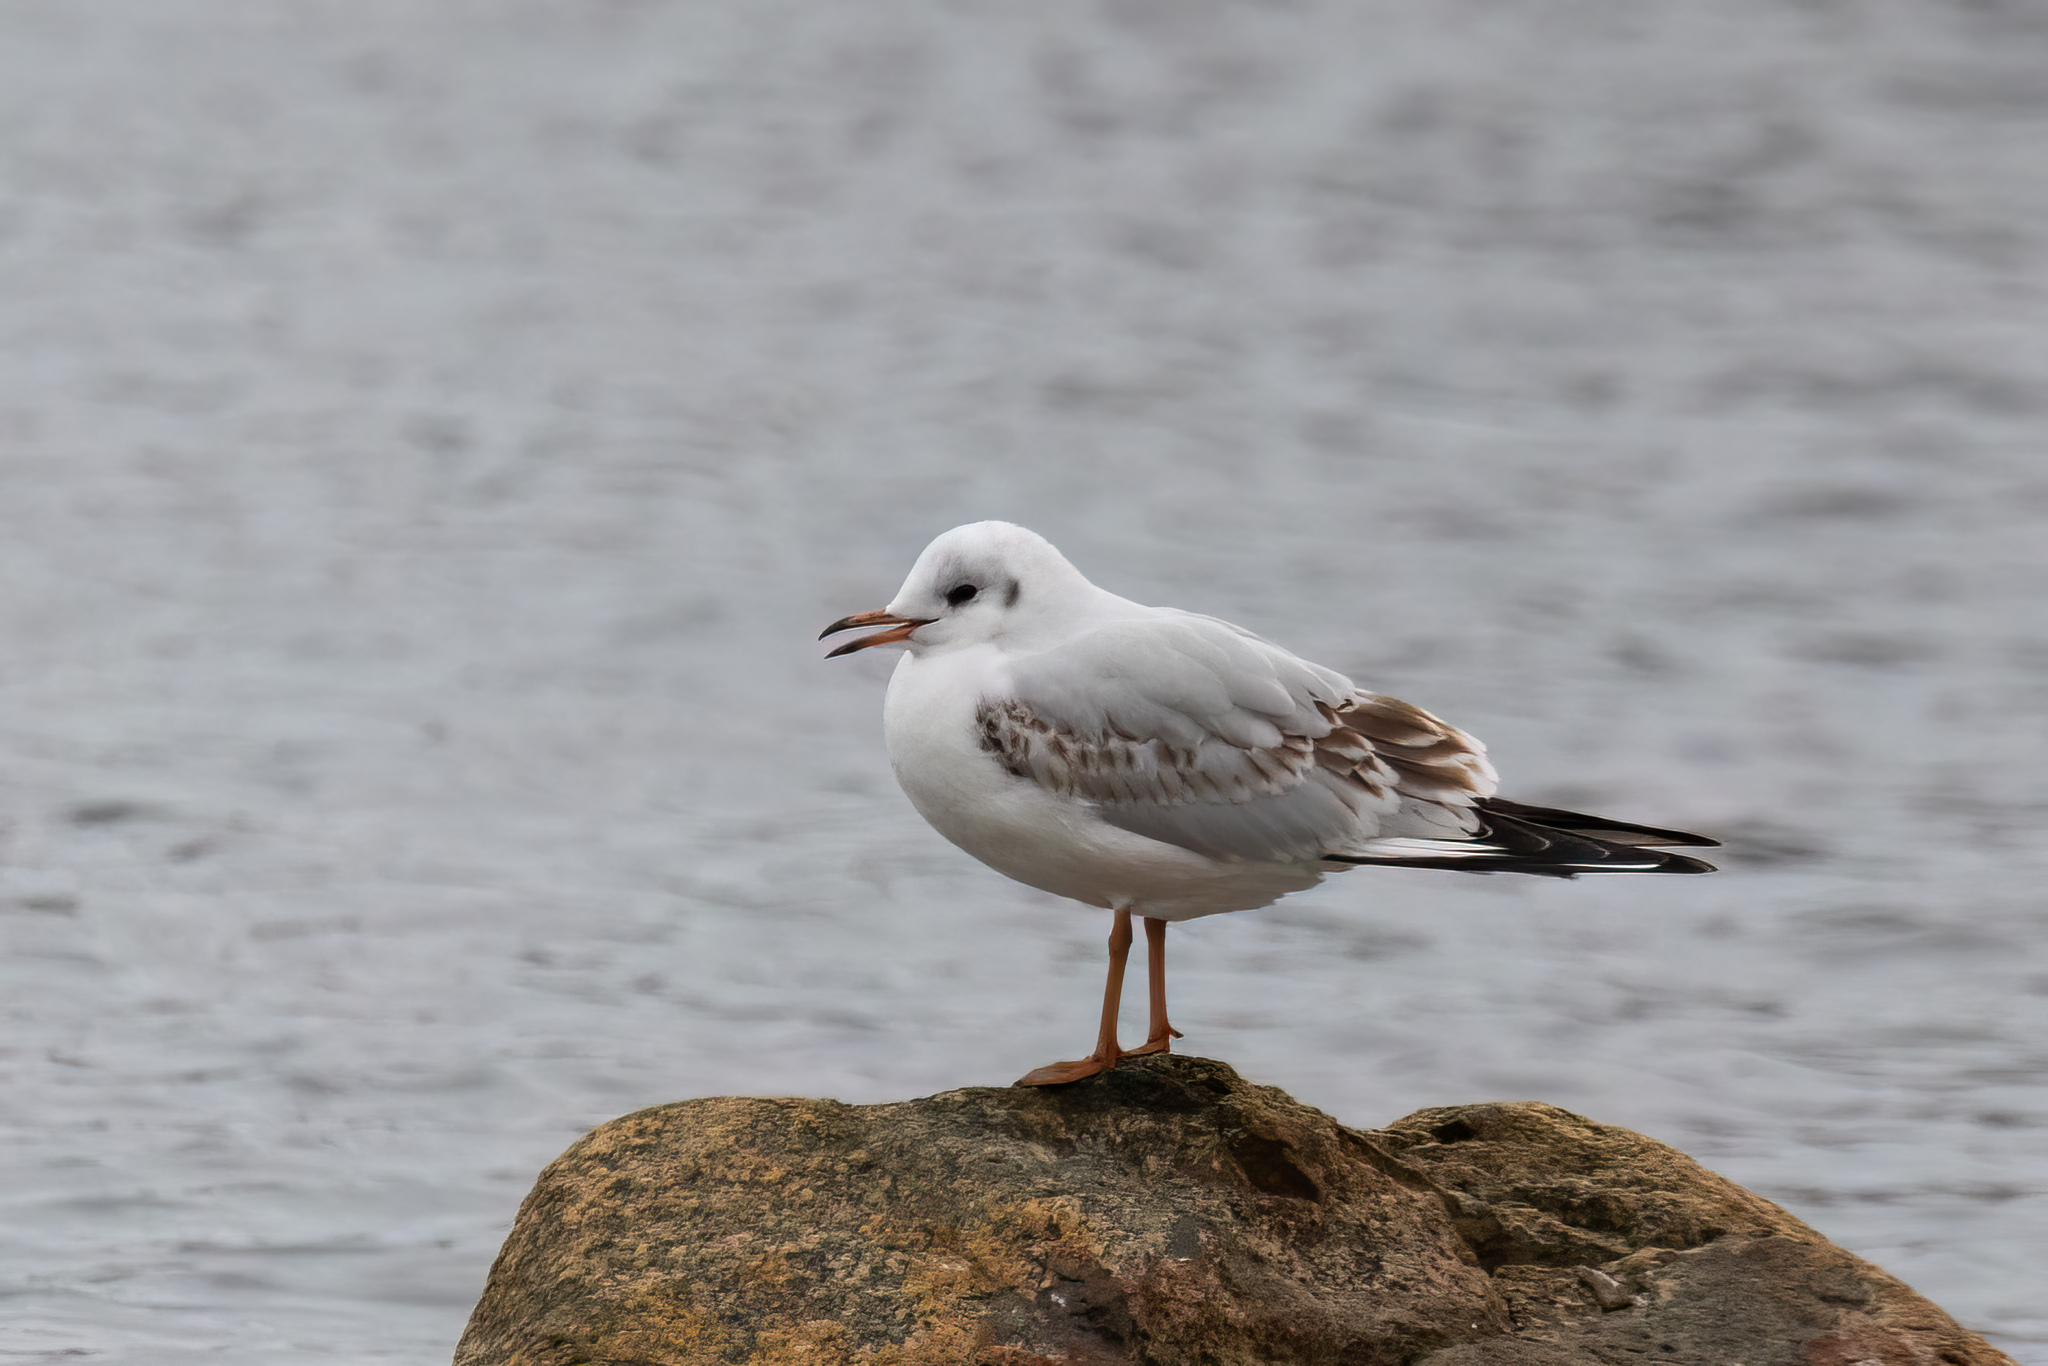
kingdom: Animalia
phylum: Chordata
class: Aves
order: Charadriiformes
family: Laridae
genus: Chroicocephalus
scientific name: Chroicocephalus ridibundus
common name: Black-headed gull
